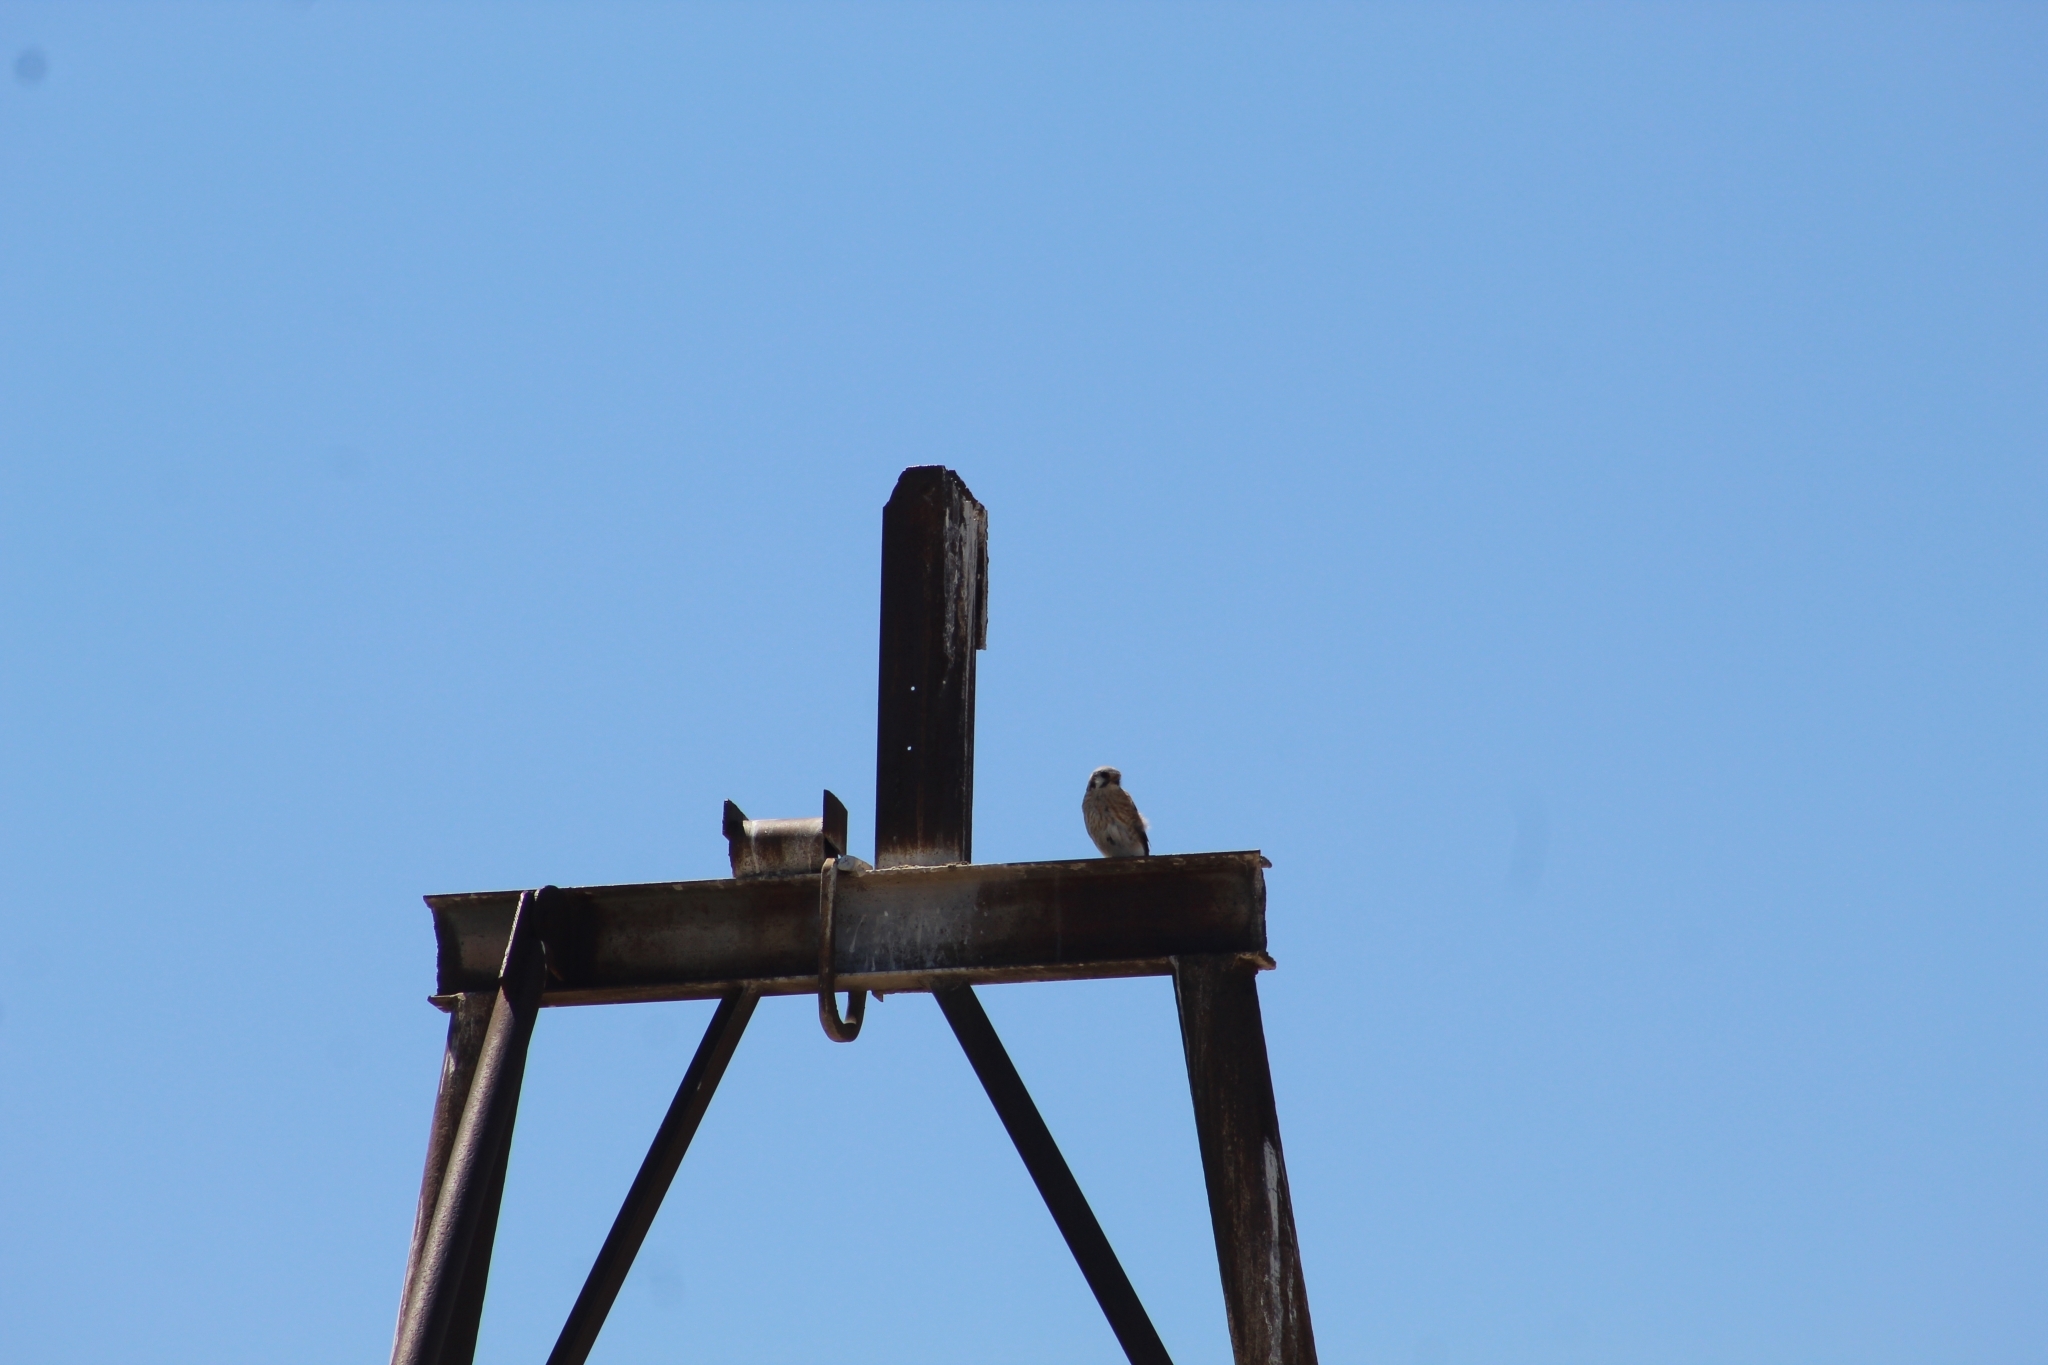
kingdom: Animalia
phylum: Chordata
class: Aves
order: Falconiformes
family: Falconidae
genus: Falco
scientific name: Falco sparverius
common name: American kestrel
